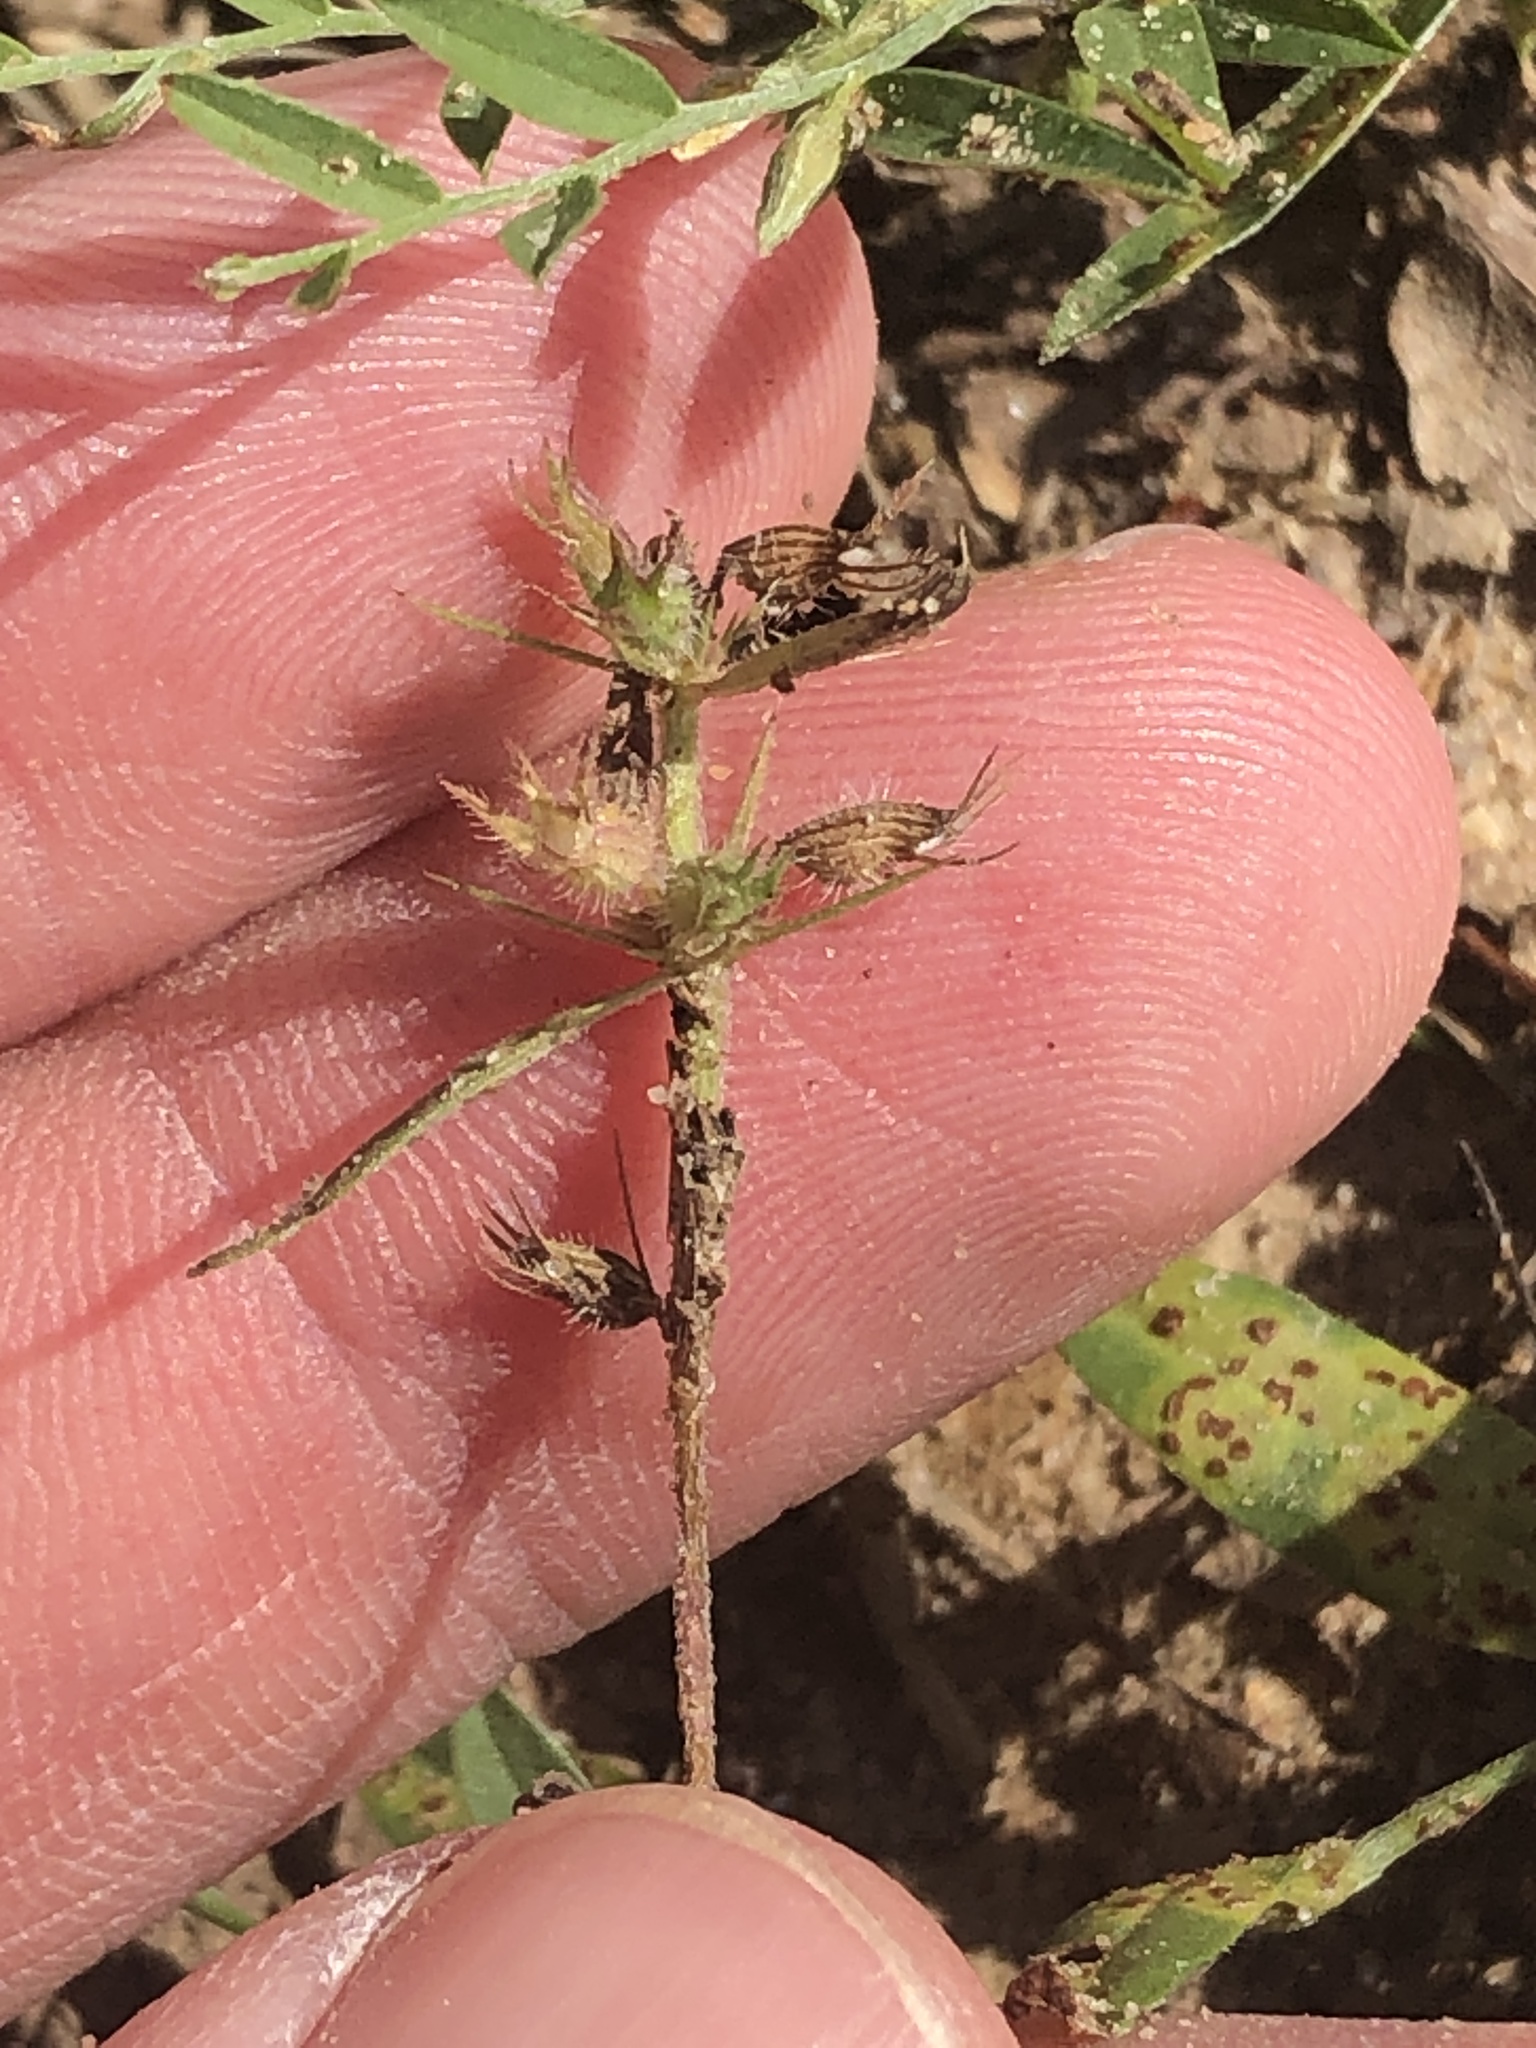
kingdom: Plantae
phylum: Tracheophyta
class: Magnoliopsida
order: Lamiales
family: Lamiaceae
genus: Hedeoma
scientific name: Hedeoma hispida
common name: Mock pennyroyal
